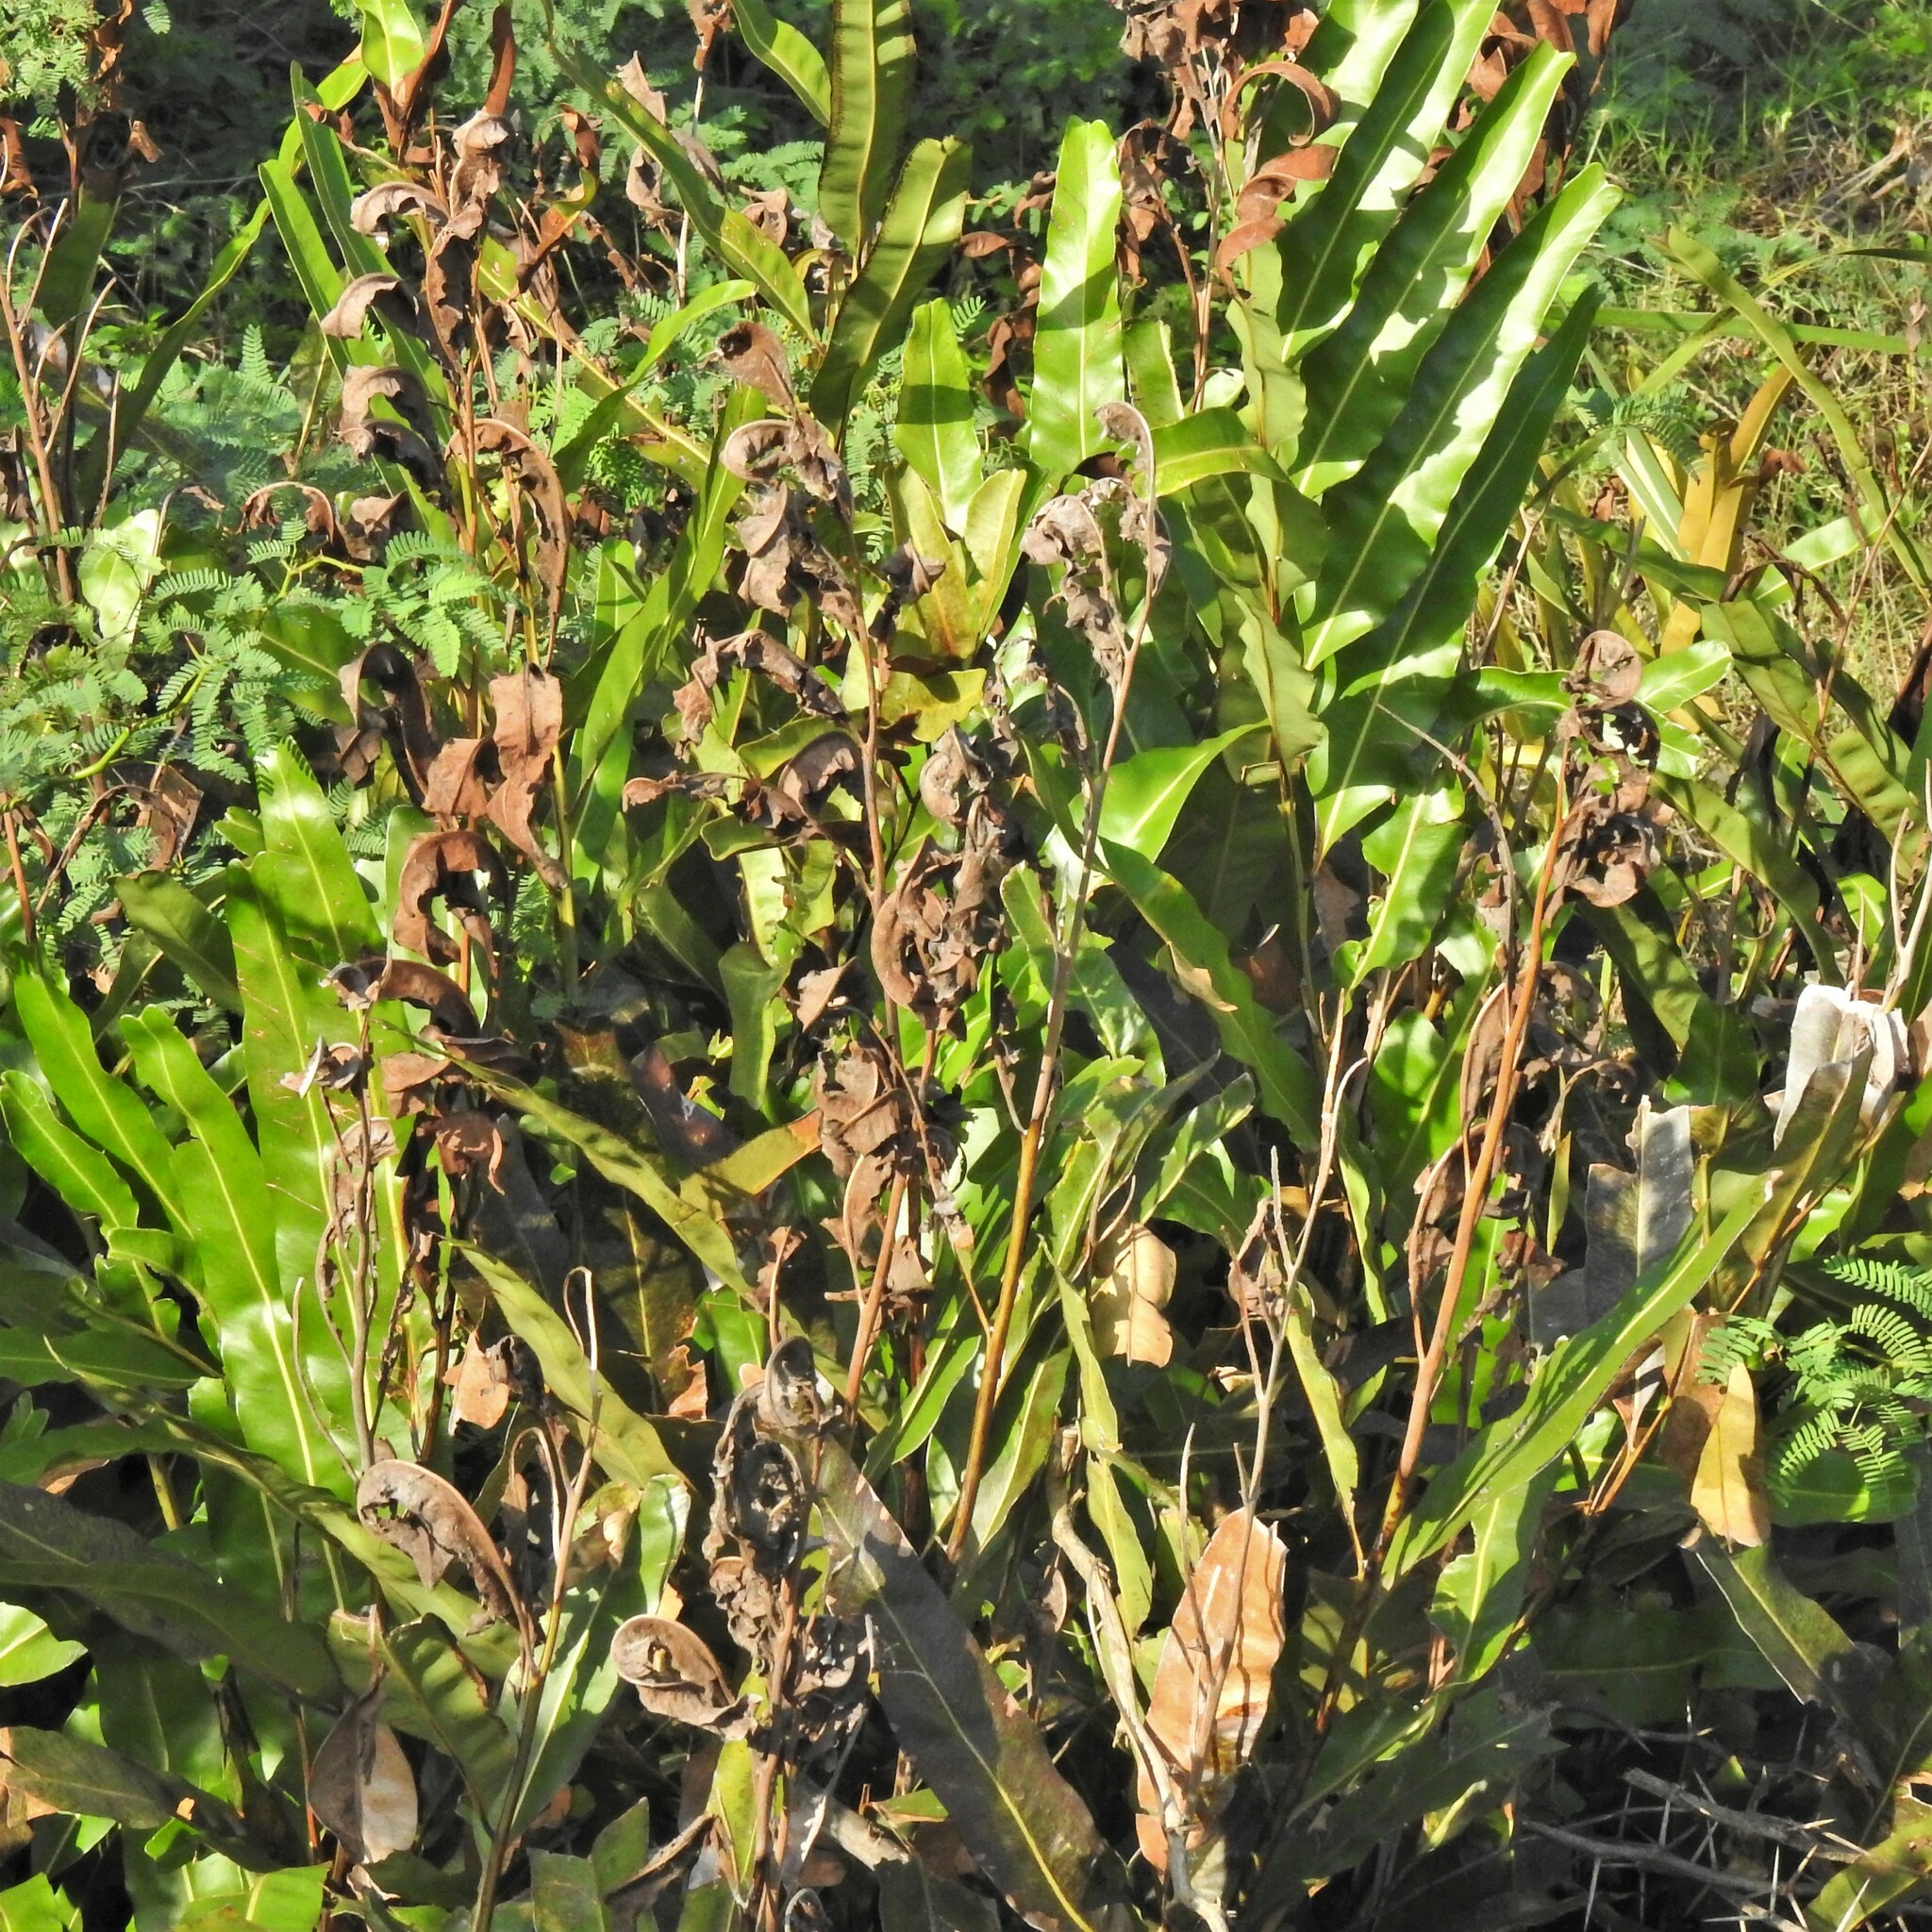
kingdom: Plantae
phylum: Tracheophyta
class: Polypodiopsida
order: Polypodiales
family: Pteridaceae
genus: Acrostichum
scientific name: Acrostichum aureum
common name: Leather fern
